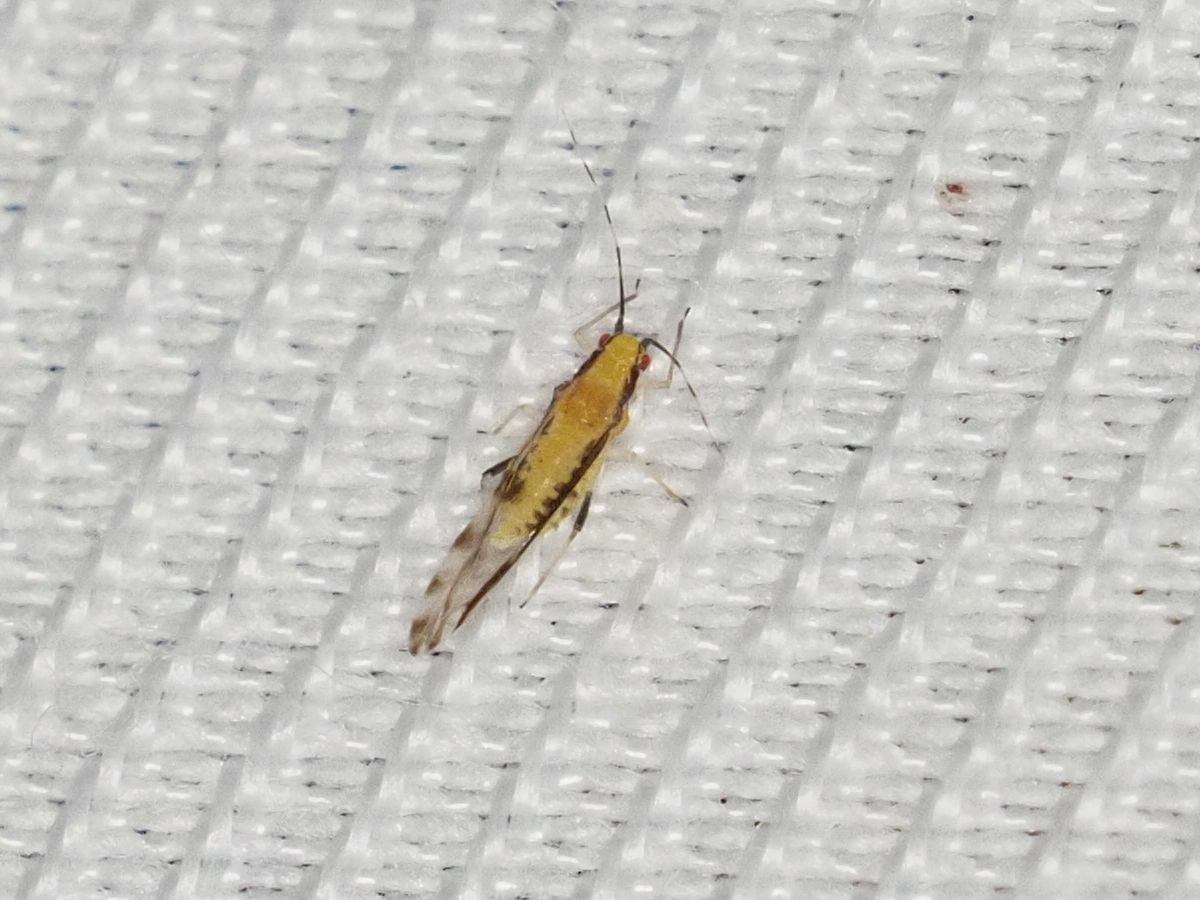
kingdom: Animalia
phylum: Arthropoda
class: Insecta
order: Hemiptera
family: Aphididae
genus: Eucallipterus
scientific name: Eucallipterus tiliae
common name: Aphid
